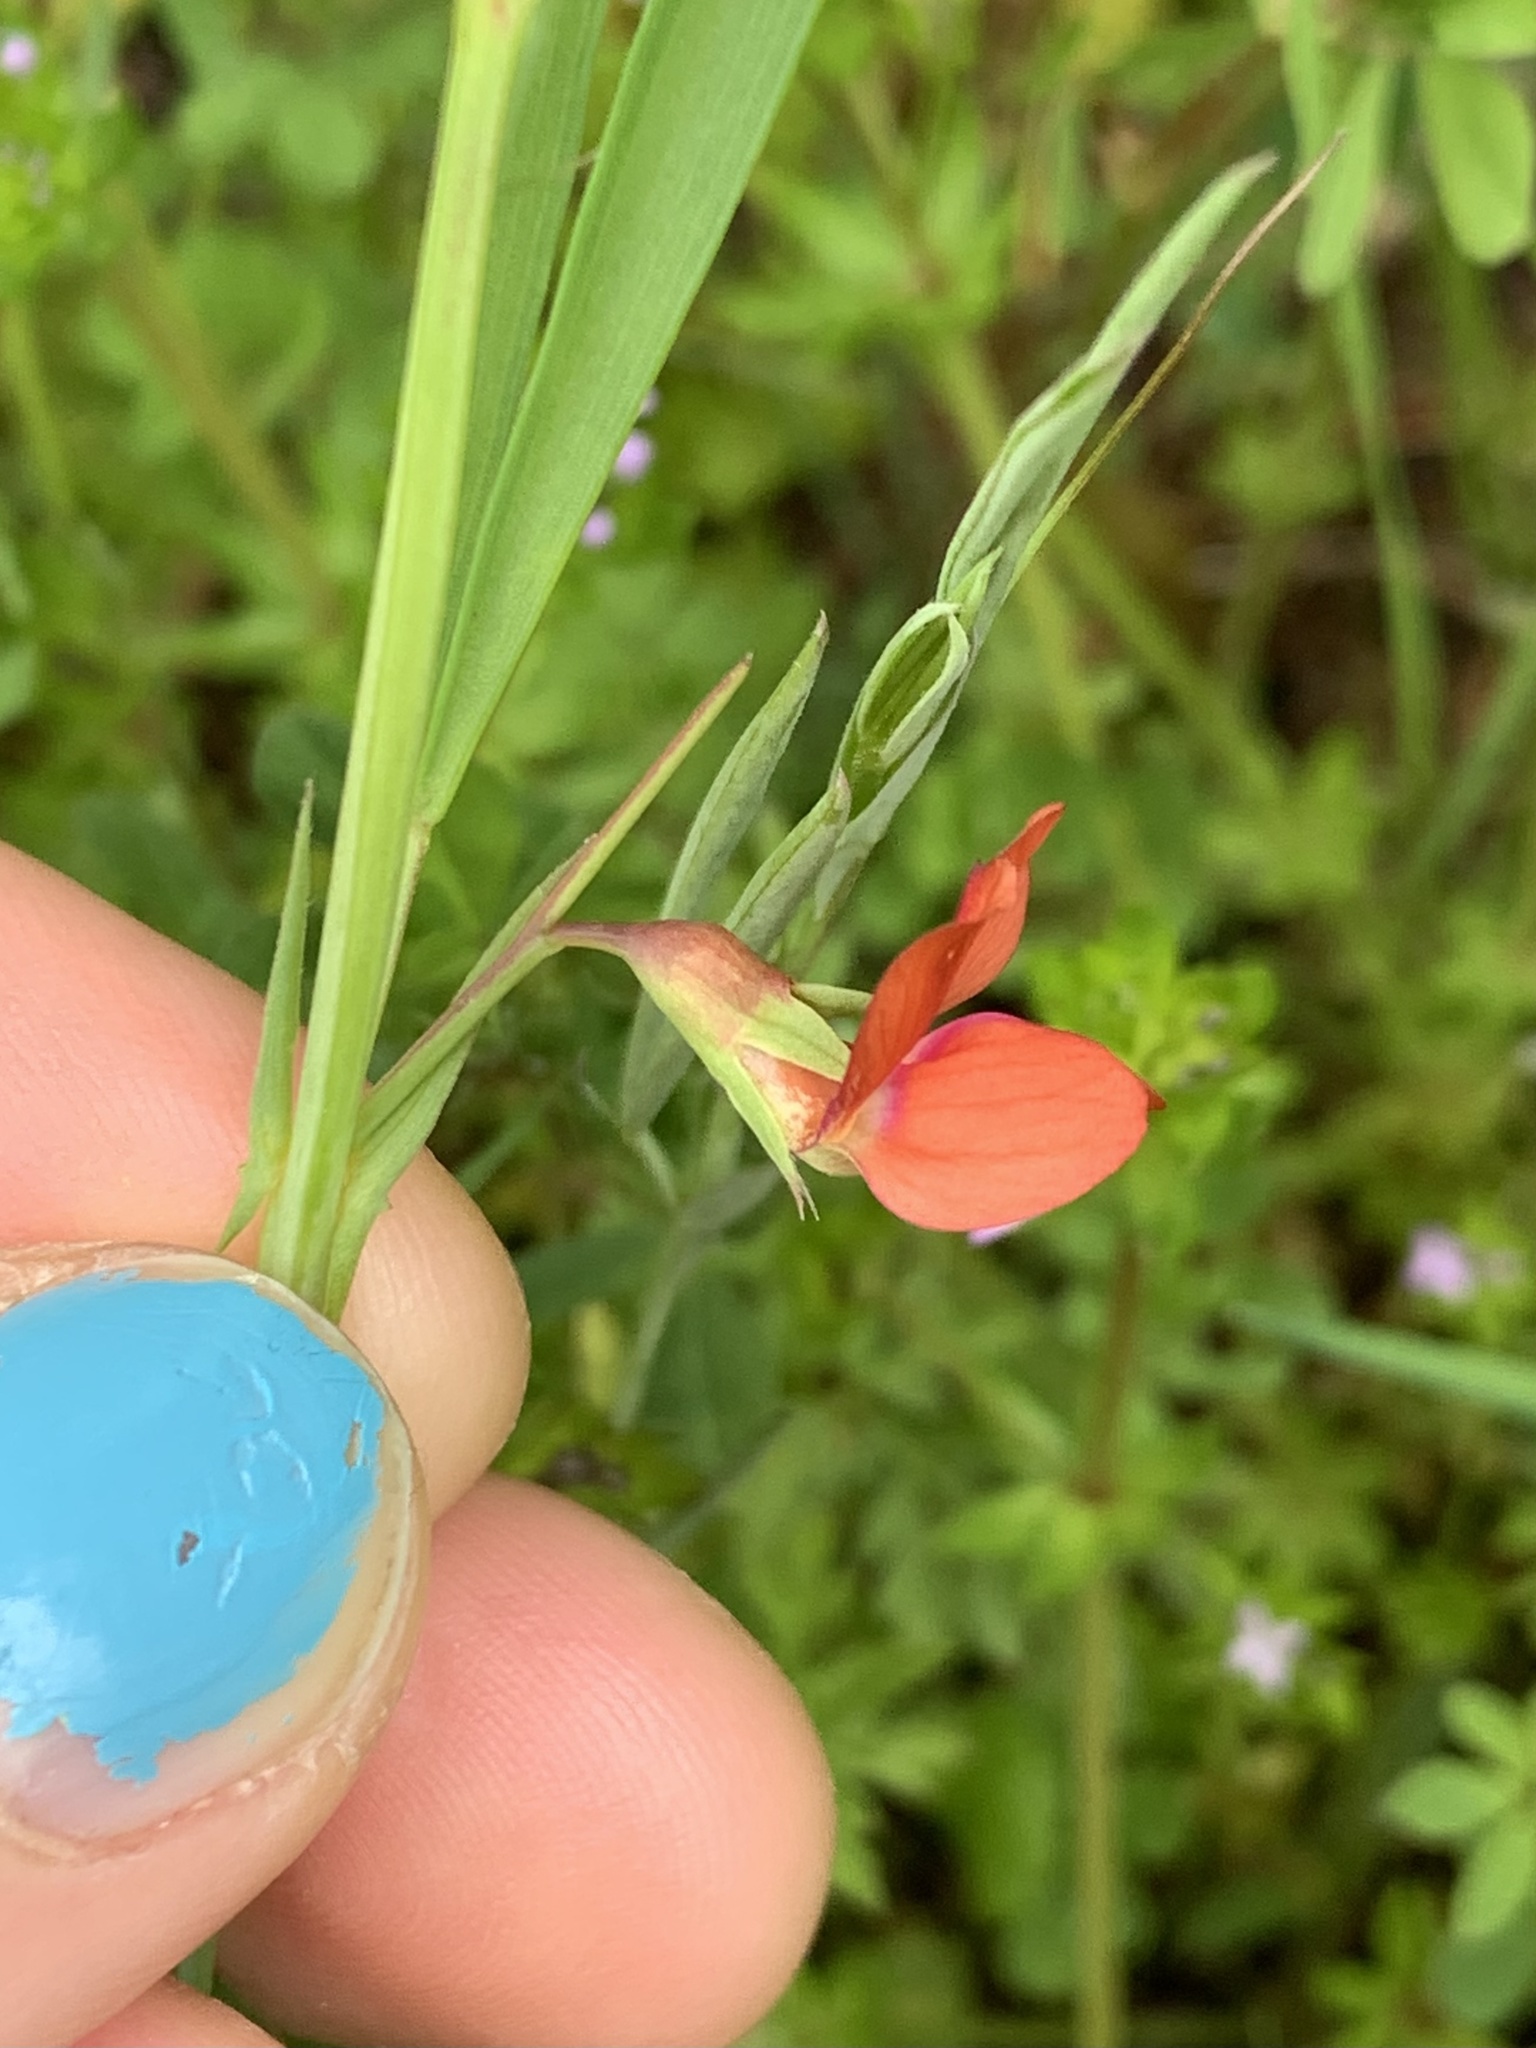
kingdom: Plantae
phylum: Tracheophyta
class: Magnoliopsida
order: Fabales
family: Fabaceae
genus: Lathyrus
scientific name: Lathyrus sphaericus
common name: Grass pea
